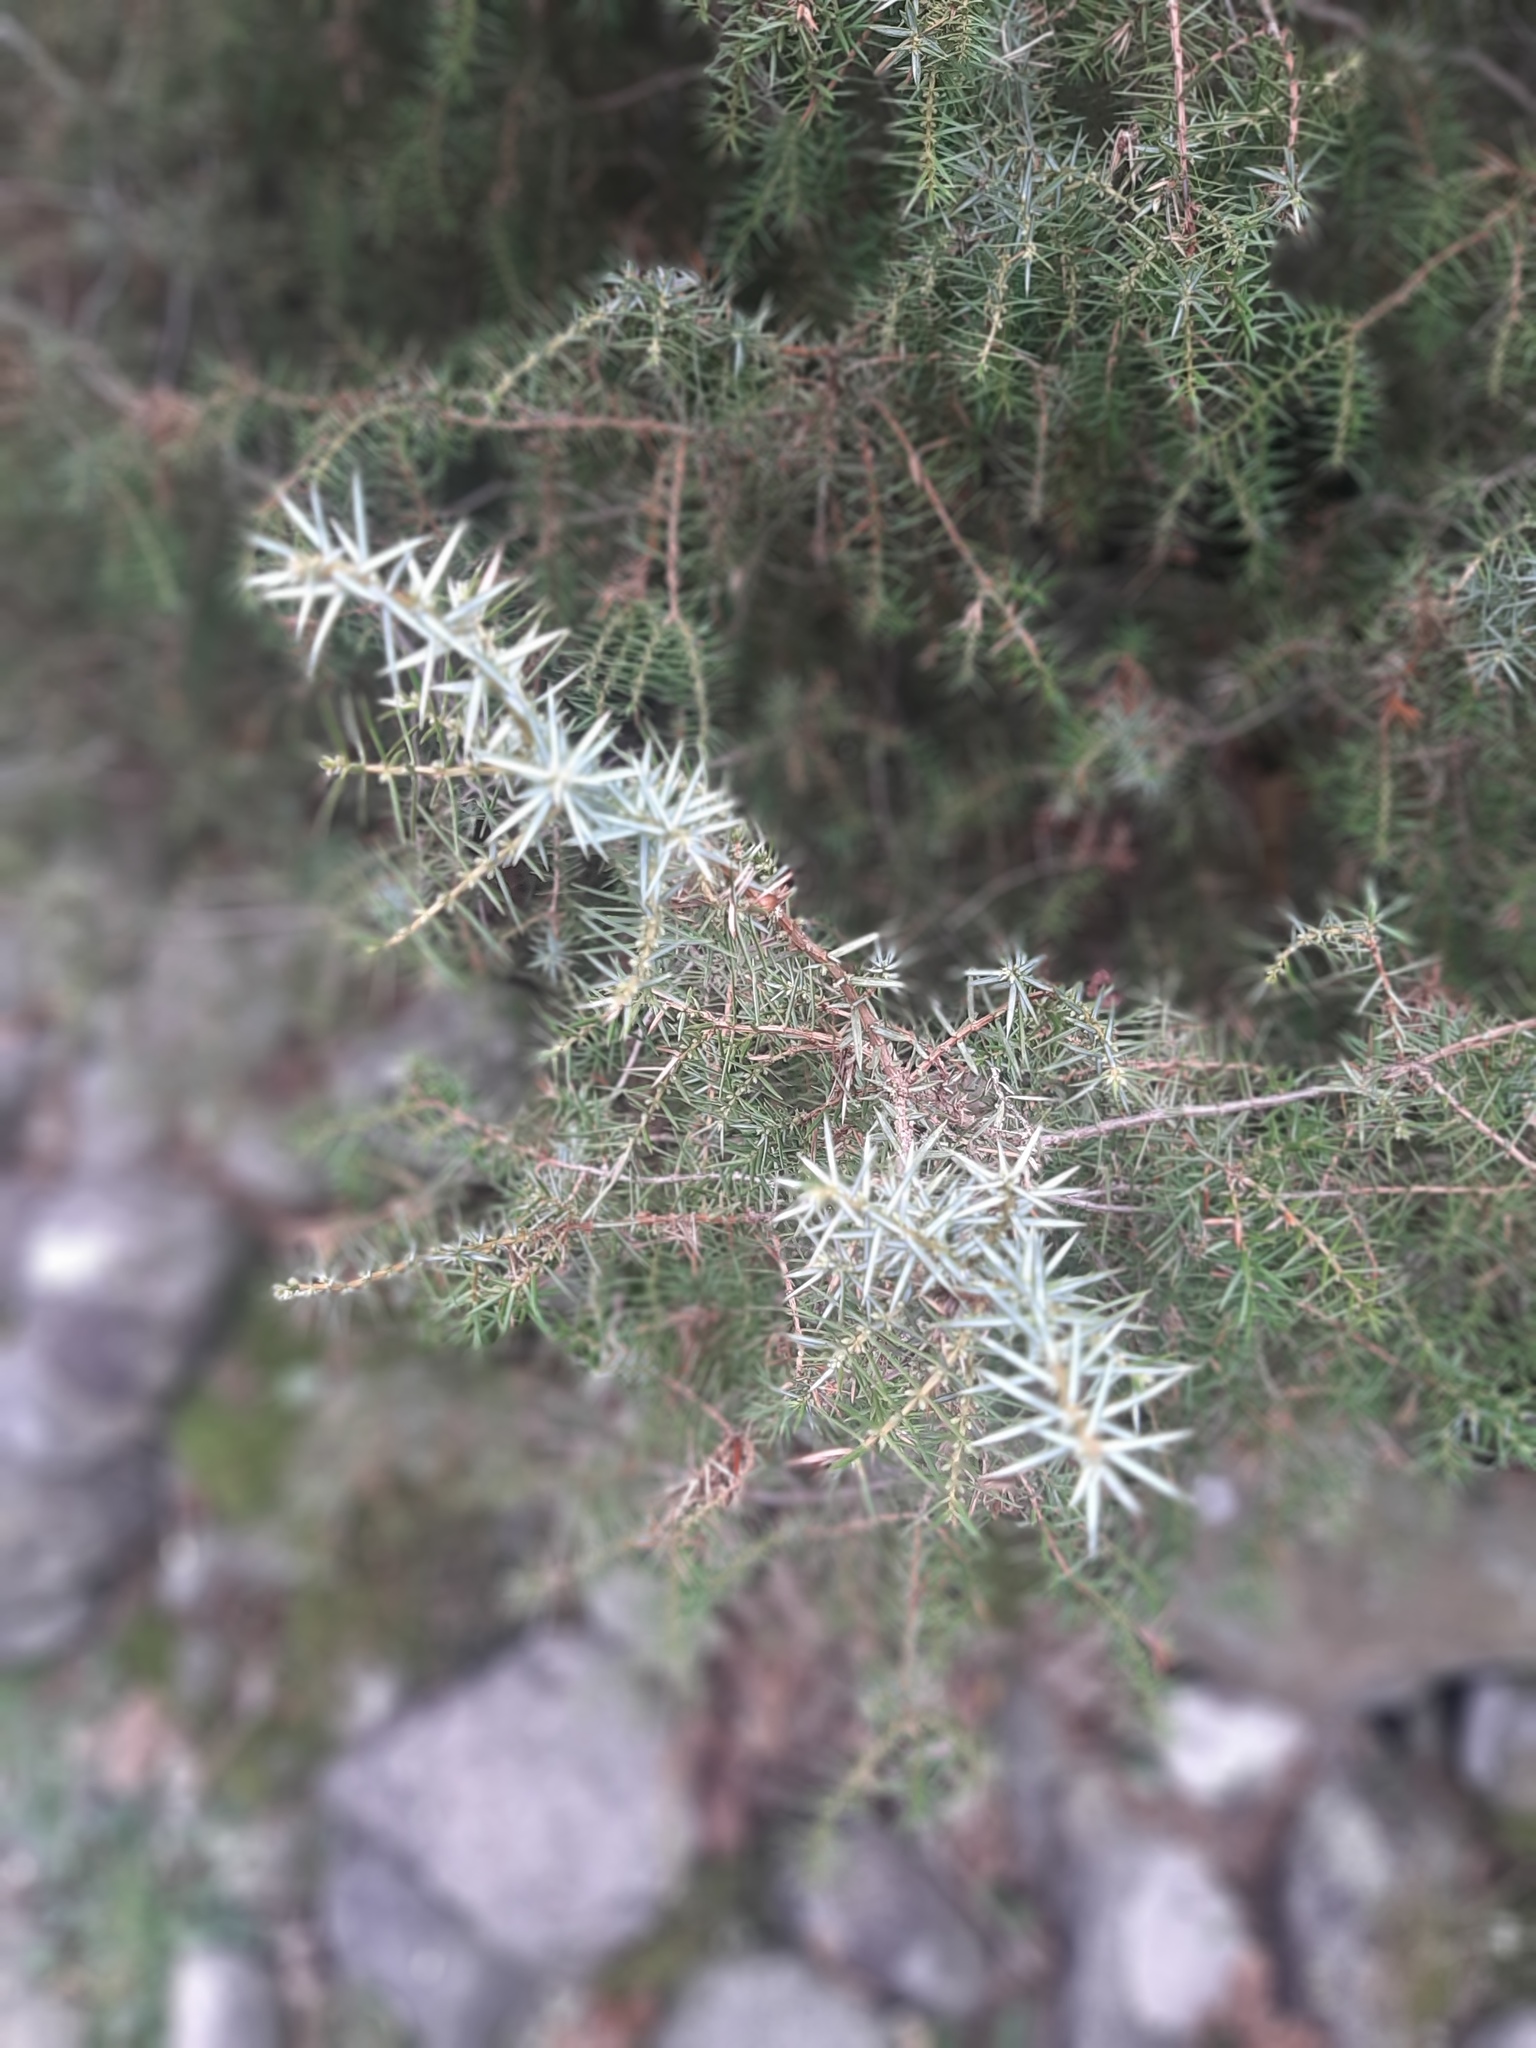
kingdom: Plantae
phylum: Tracheophyta
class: Pinopsida
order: Pinales
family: Cupressaceae
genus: Juniperus
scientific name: Juniperus communis
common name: Common juniper
